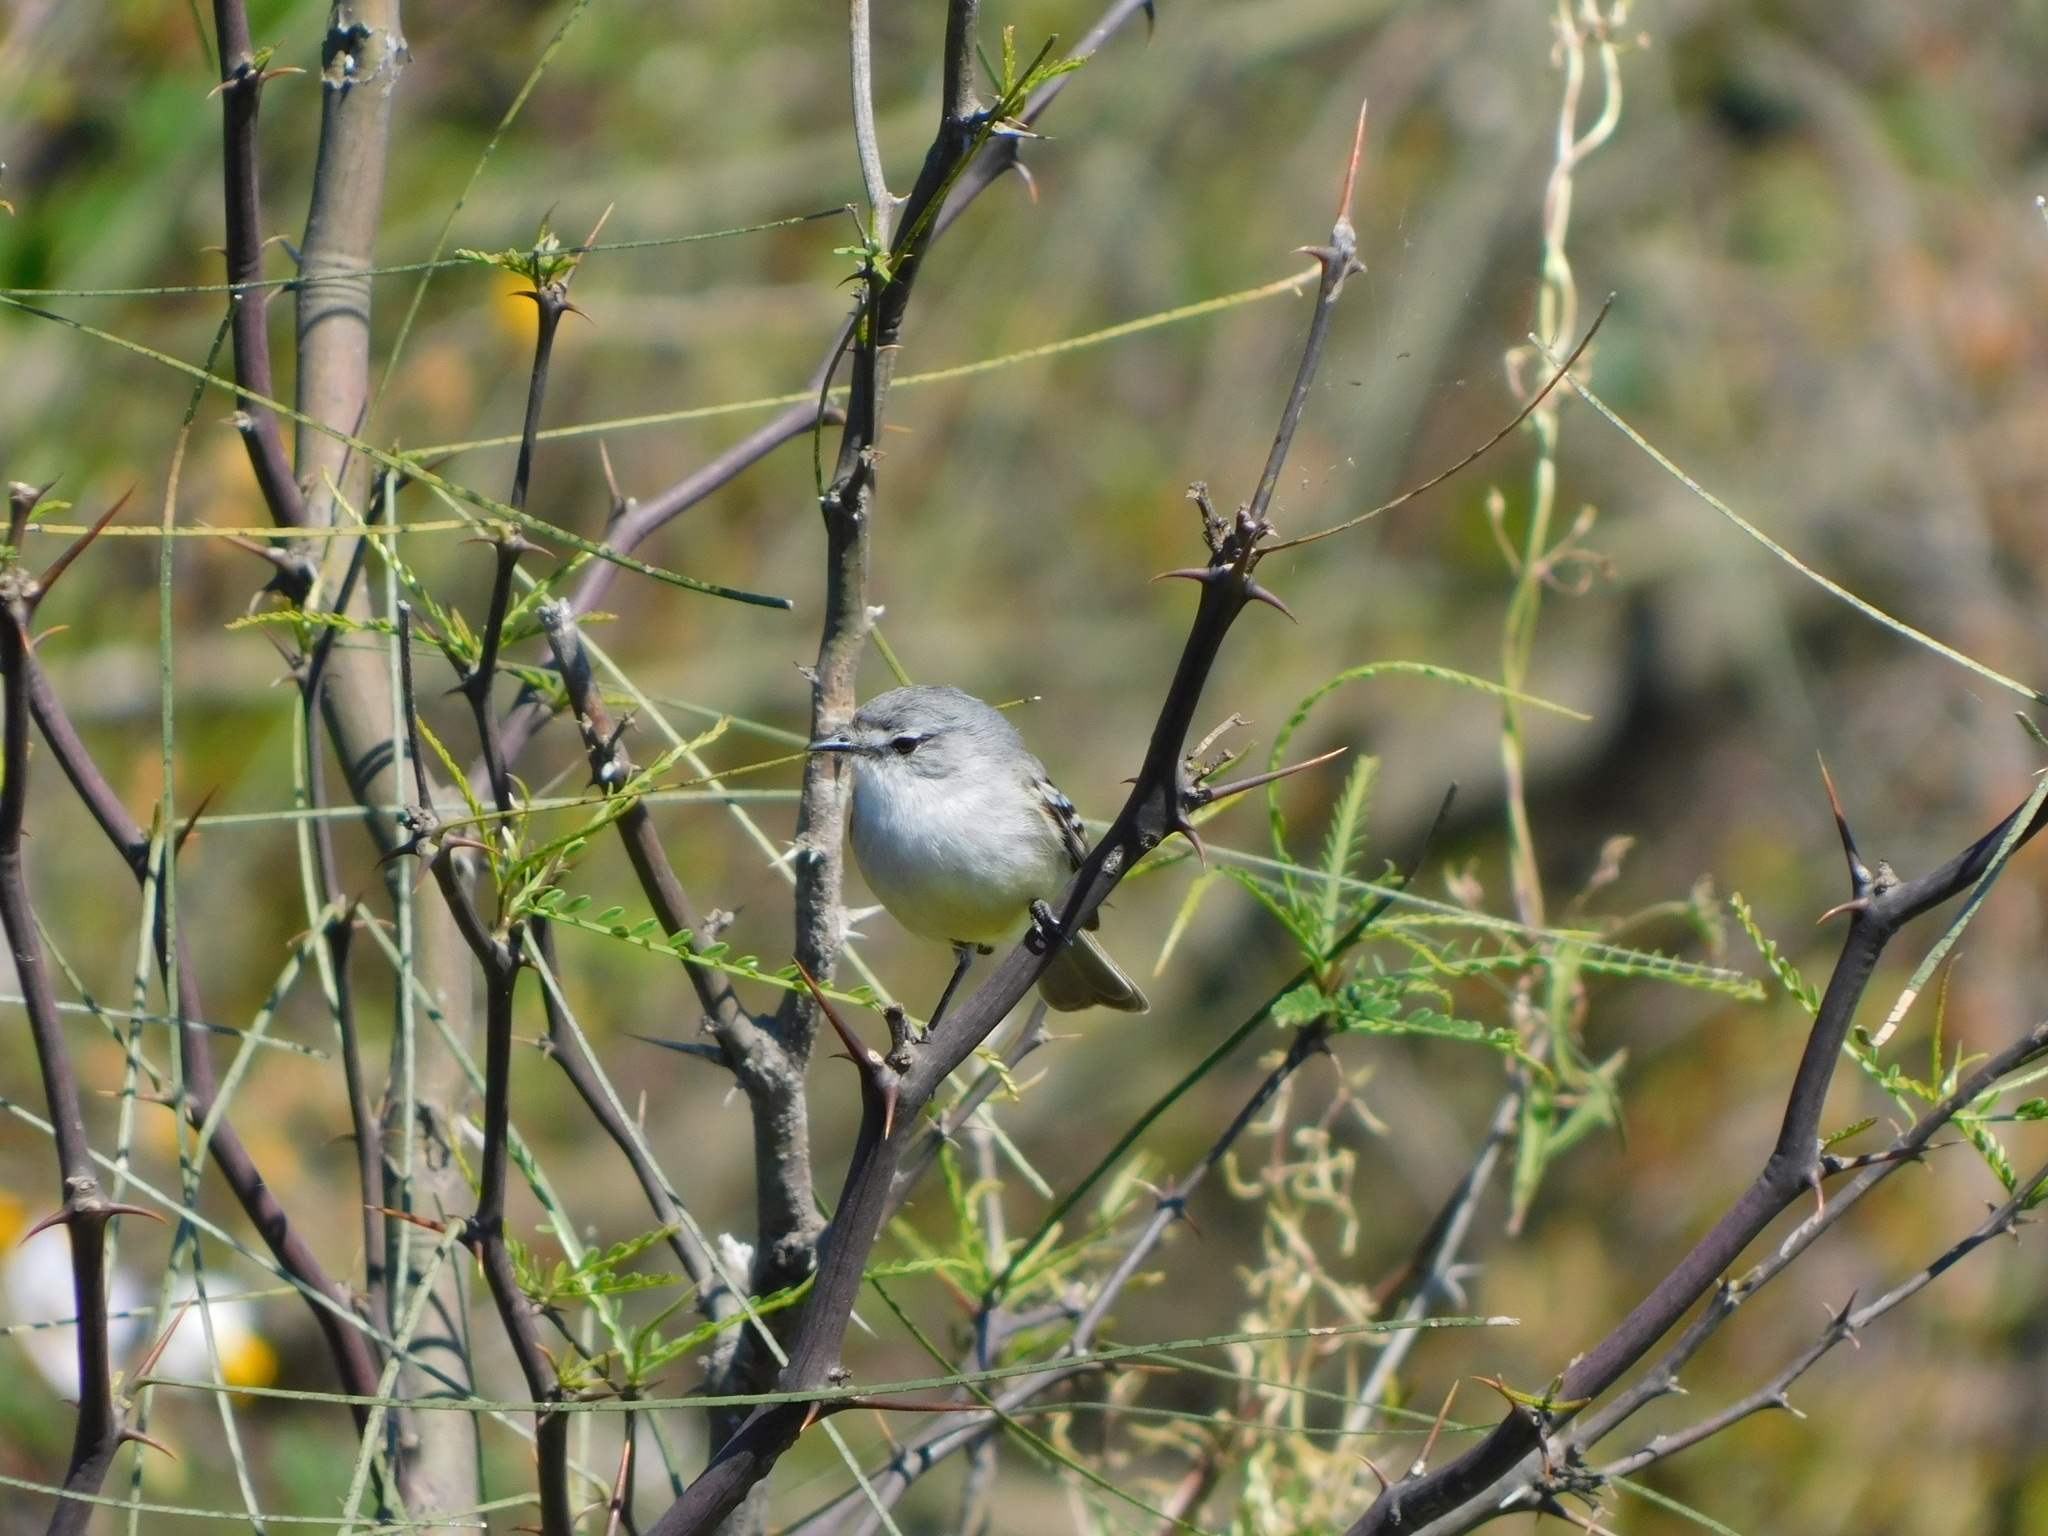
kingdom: Animalia
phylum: Chordata
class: Aves
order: Passeriformes
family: Tyrannidae
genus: Serpophaga
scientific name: Serpophaga subcristata
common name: White-crested tyrannulet
